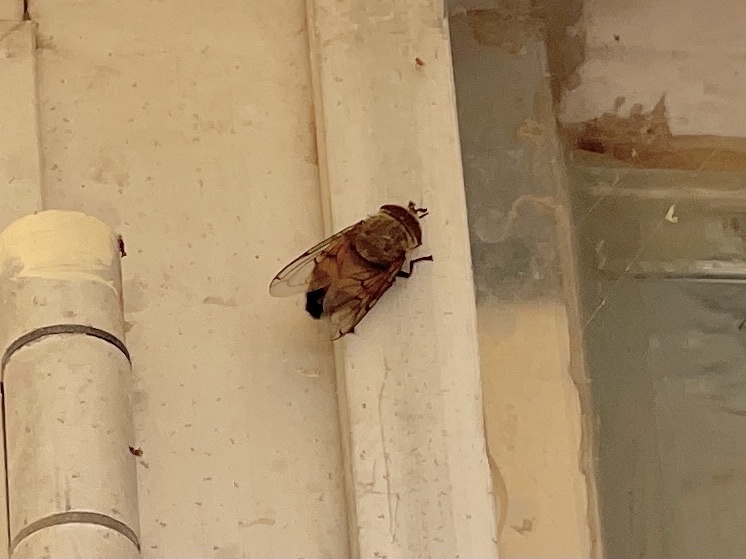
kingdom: Animalia
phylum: Arthropoda
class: Insecta
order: Diptera
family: Syrphidae
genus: Copestylum
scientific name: Copestylum haagii
